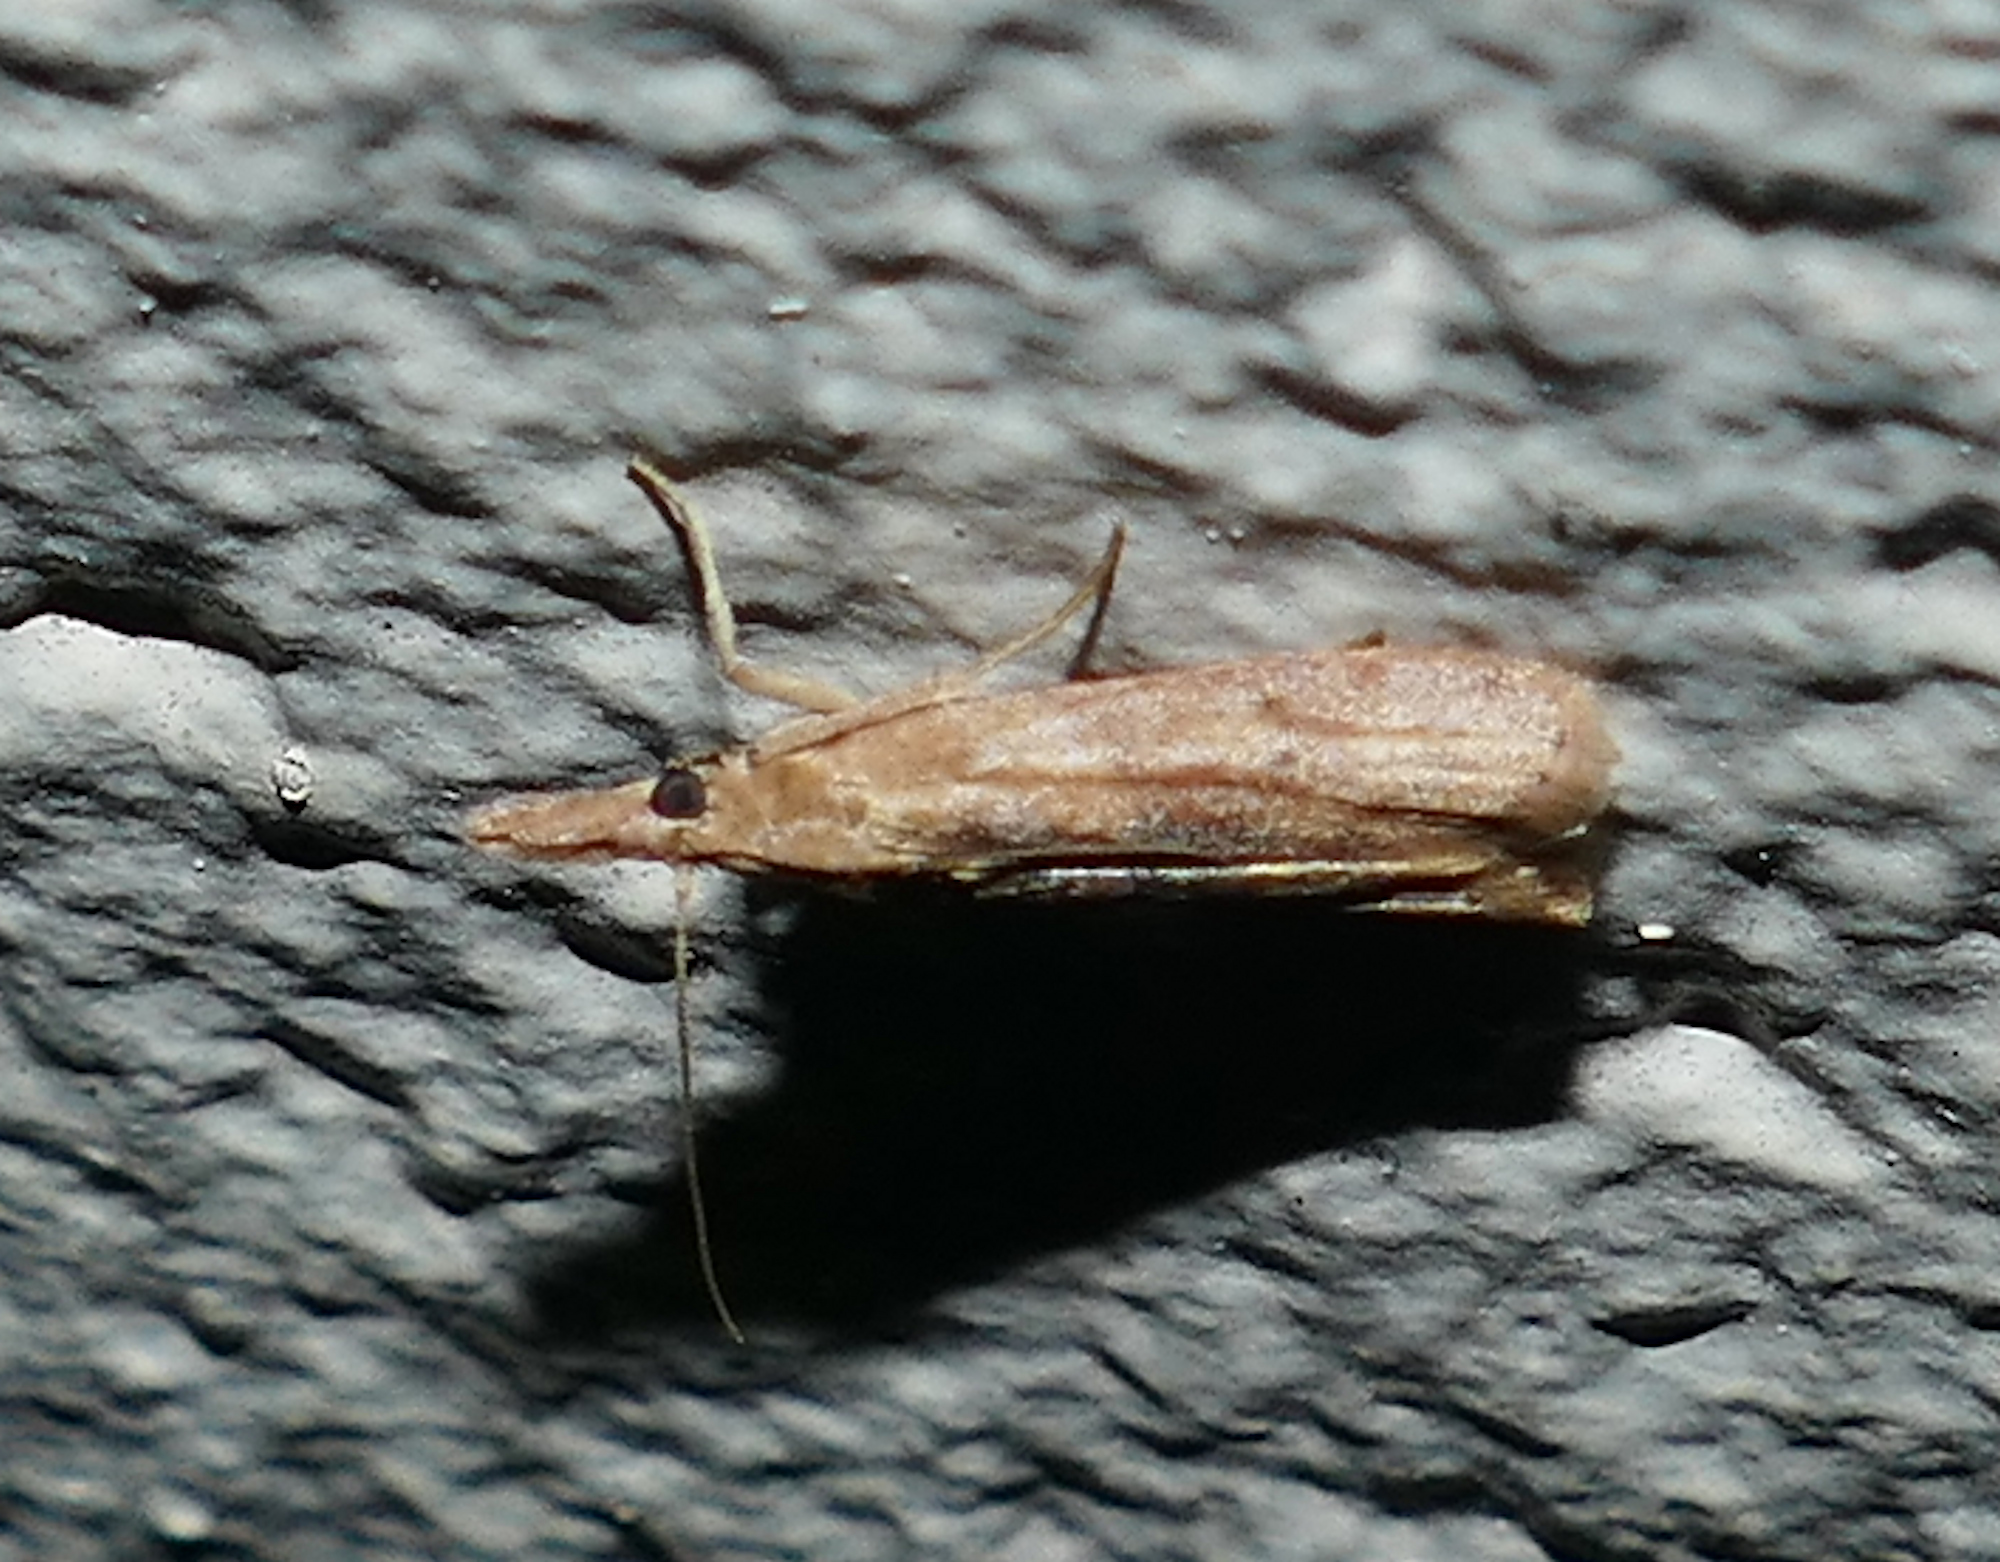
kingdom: Animalia
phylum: Arthropoda
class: Insecta
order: Lepidoptera
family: Pyralidae
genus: Macrorrhinia
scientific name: Macrorrhinia endonephele
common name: Alligator weed stemborer moth
